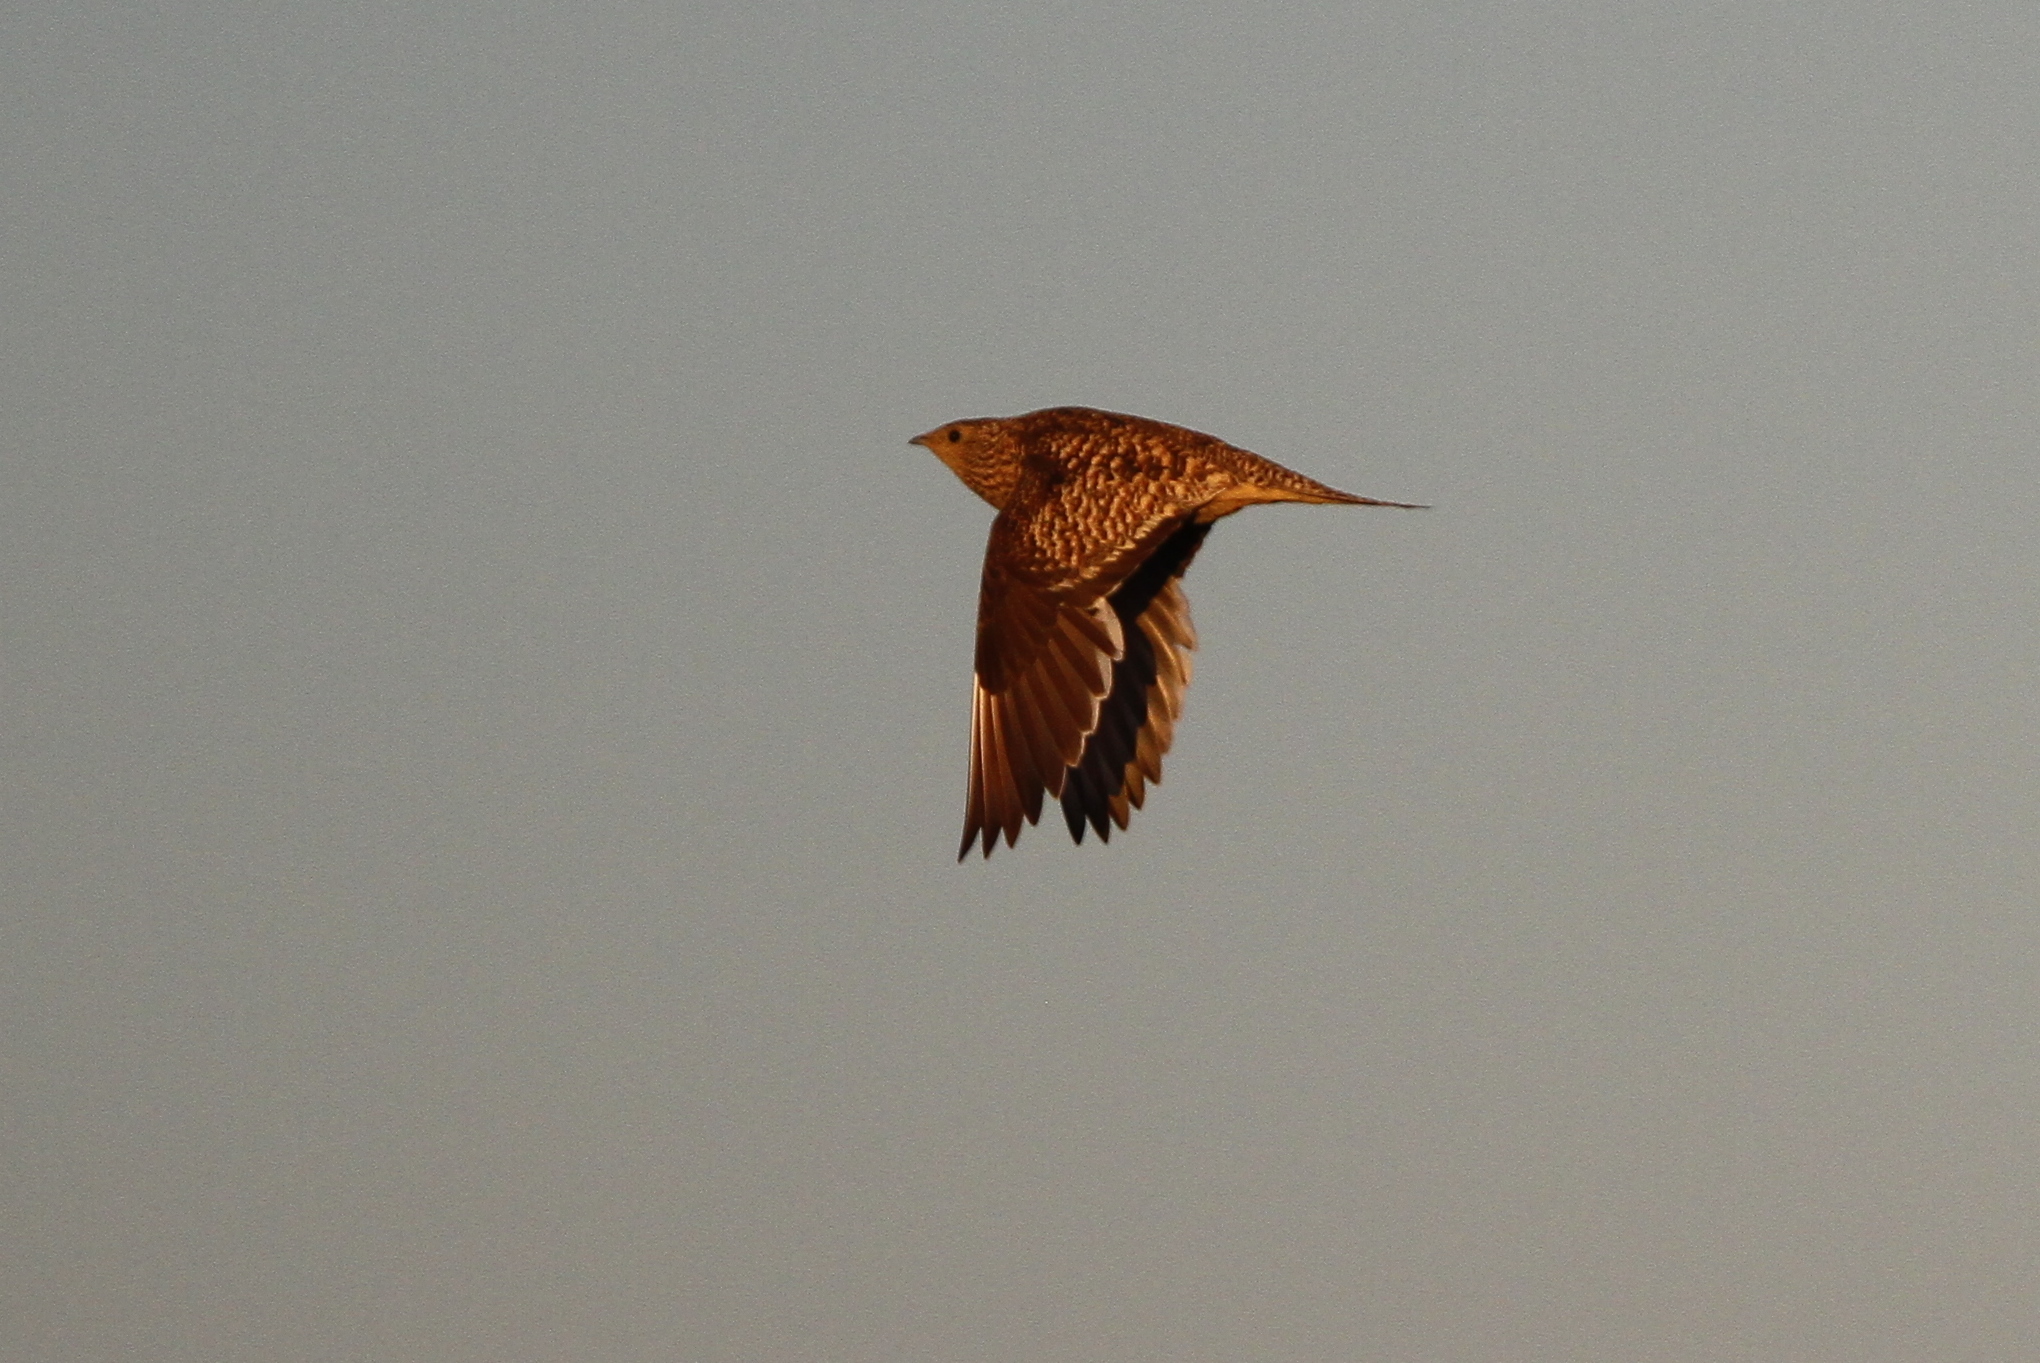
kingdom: Animalia
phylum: Chordata
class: Aves
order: Pteroclidiformes
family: Pteroclididae
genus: Pterocles
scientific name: Pterocles namaqua
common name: Namaqua sandgrouse
